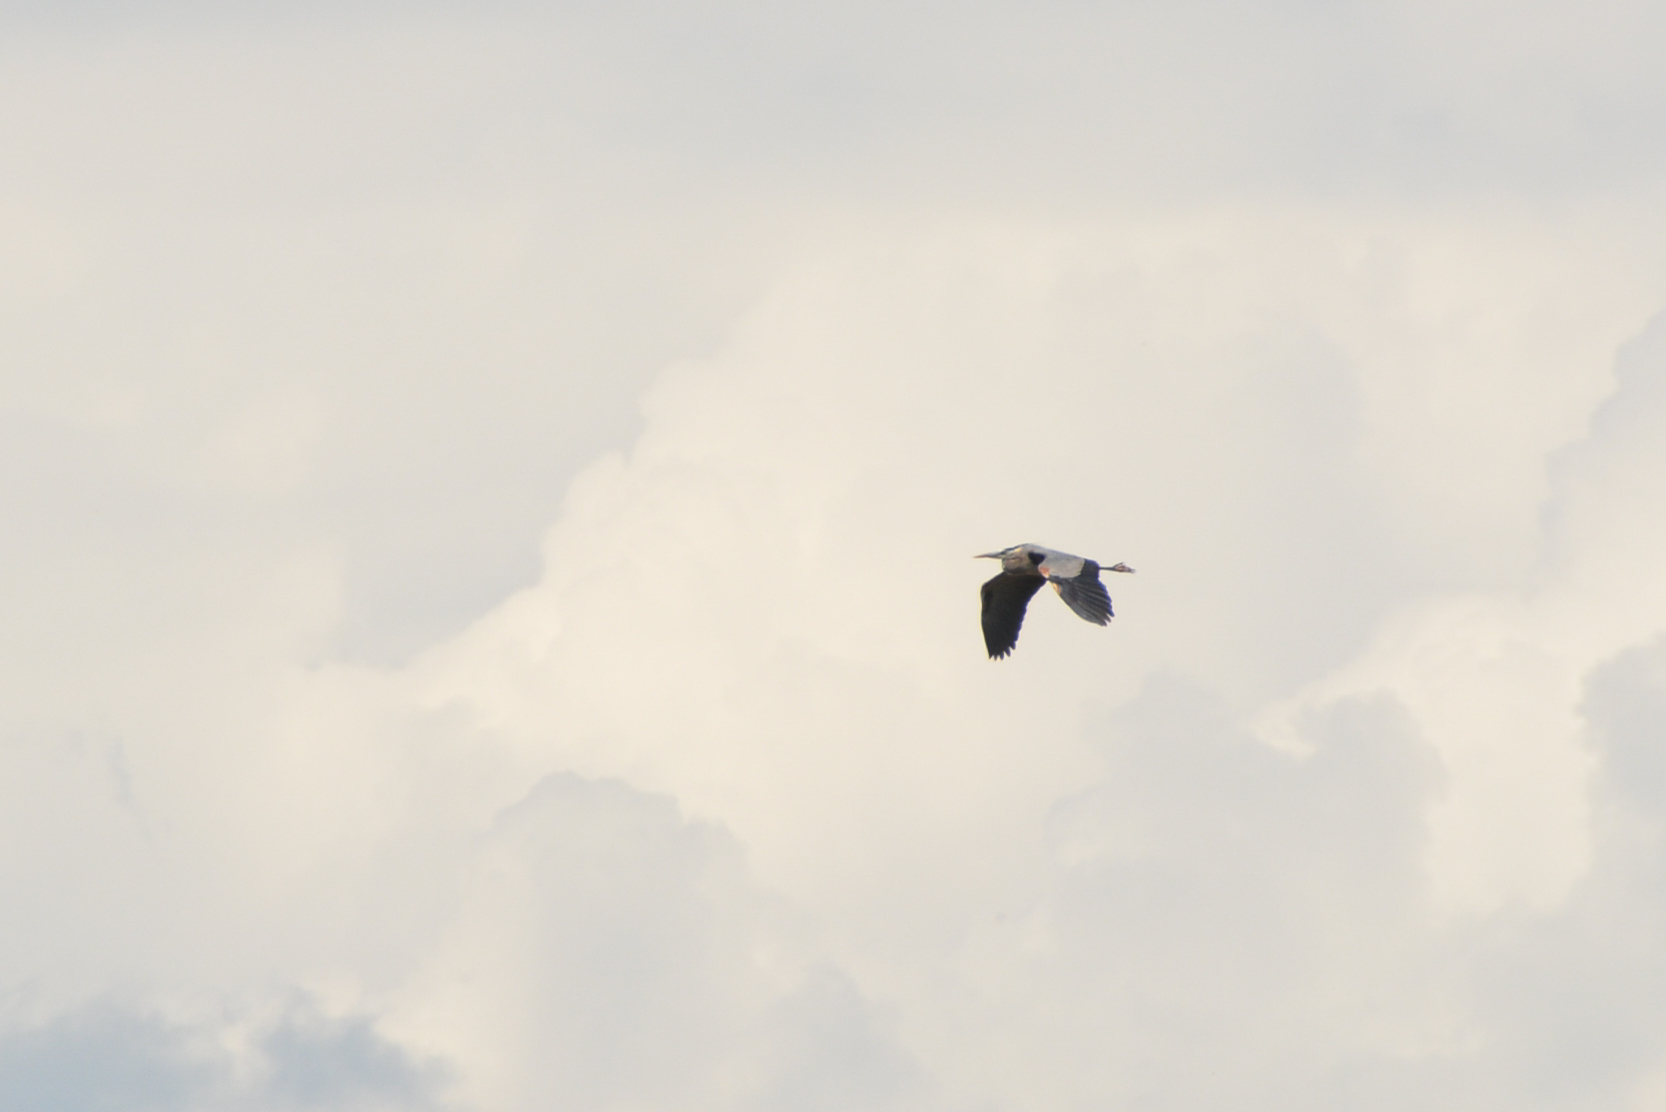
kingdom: Animalia
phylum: Chordata
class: Aves
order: Pelecaniformes
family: Ardeidae
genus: Ardea
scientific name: Ardea herodias
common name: Great blue heron
